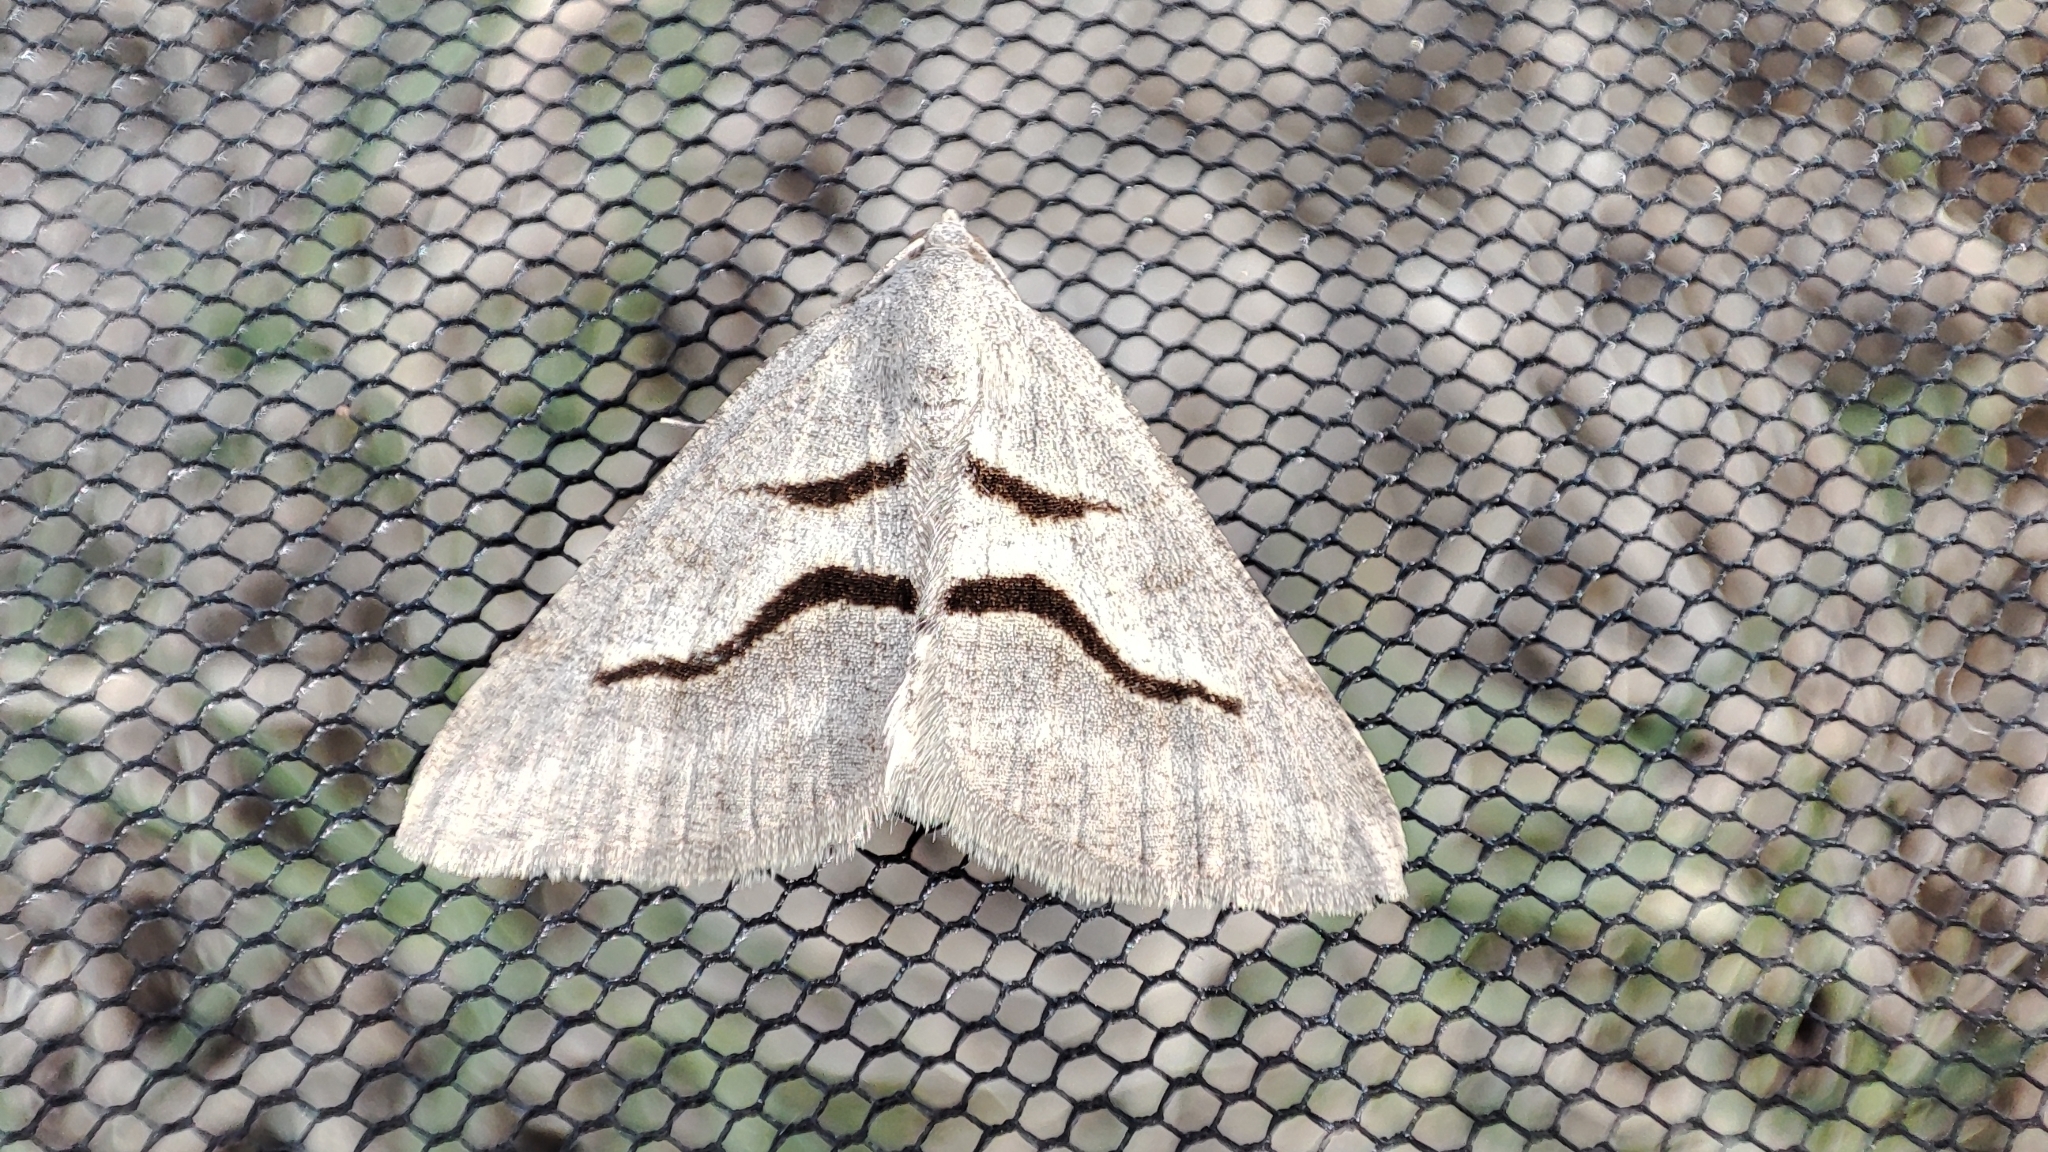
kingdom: Animalia
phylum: Arthropoda
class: Insecta
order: Lepidoptera
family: Geometridae
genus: Digrammia
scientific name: Digrammia rippertaria
